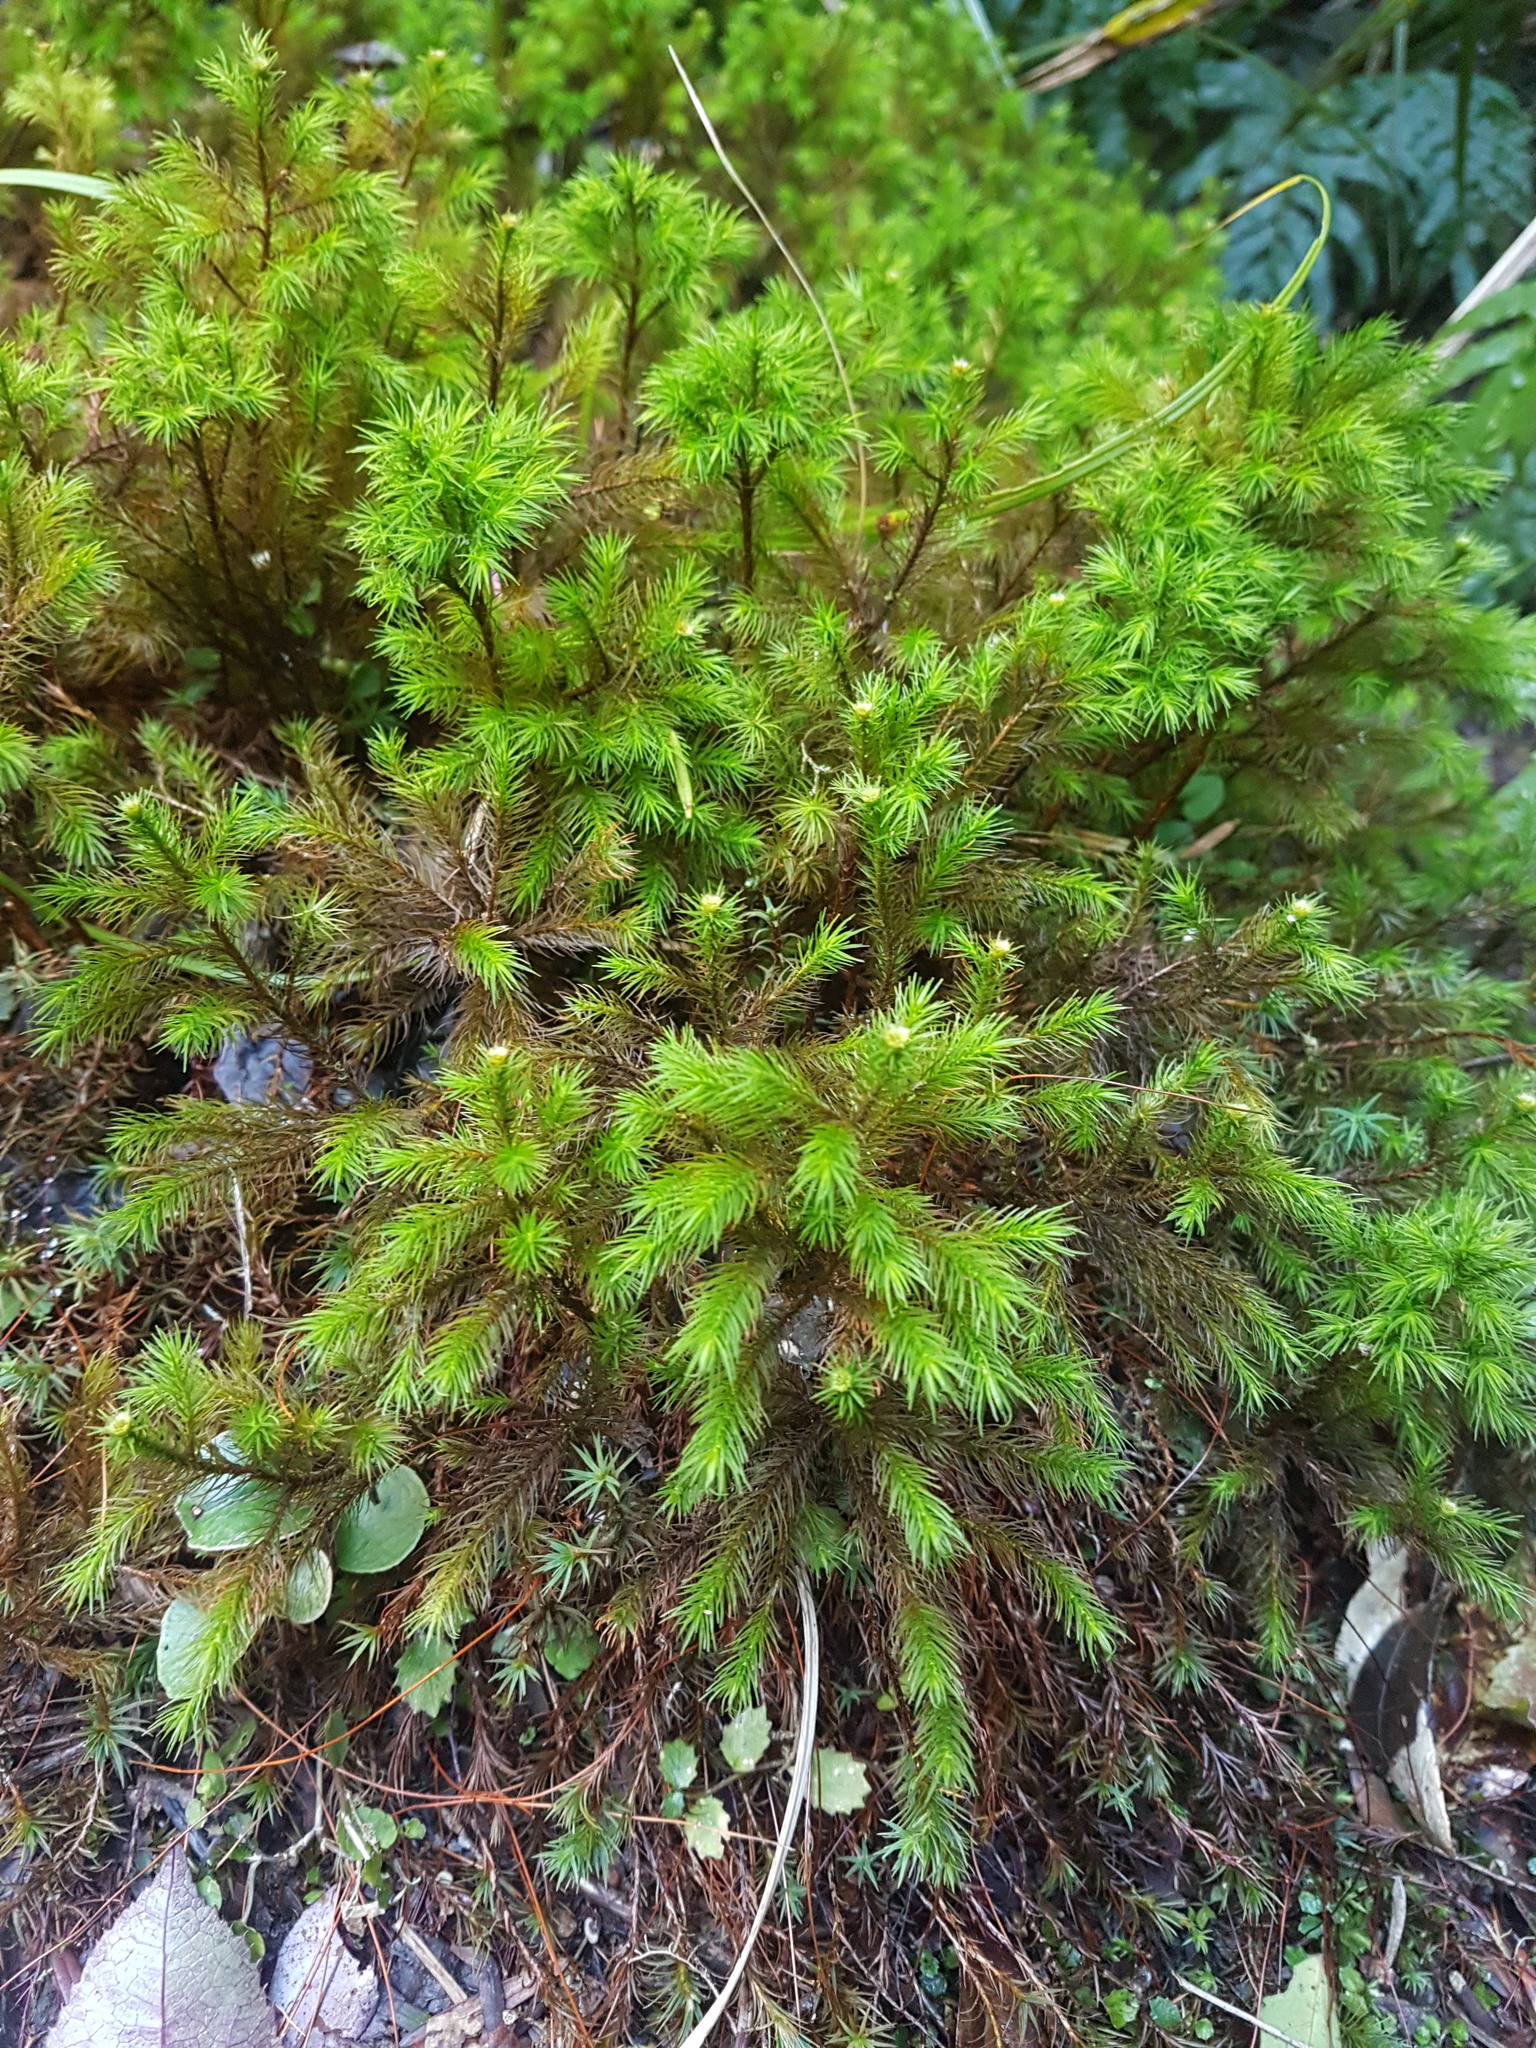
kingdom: Plantae
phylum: Bryophyta
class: Polytrichopsida
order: Polytrichales
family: Polytrichaceae
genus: Dendroligotrichum
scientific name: Dendroligotrichum tongariroense
